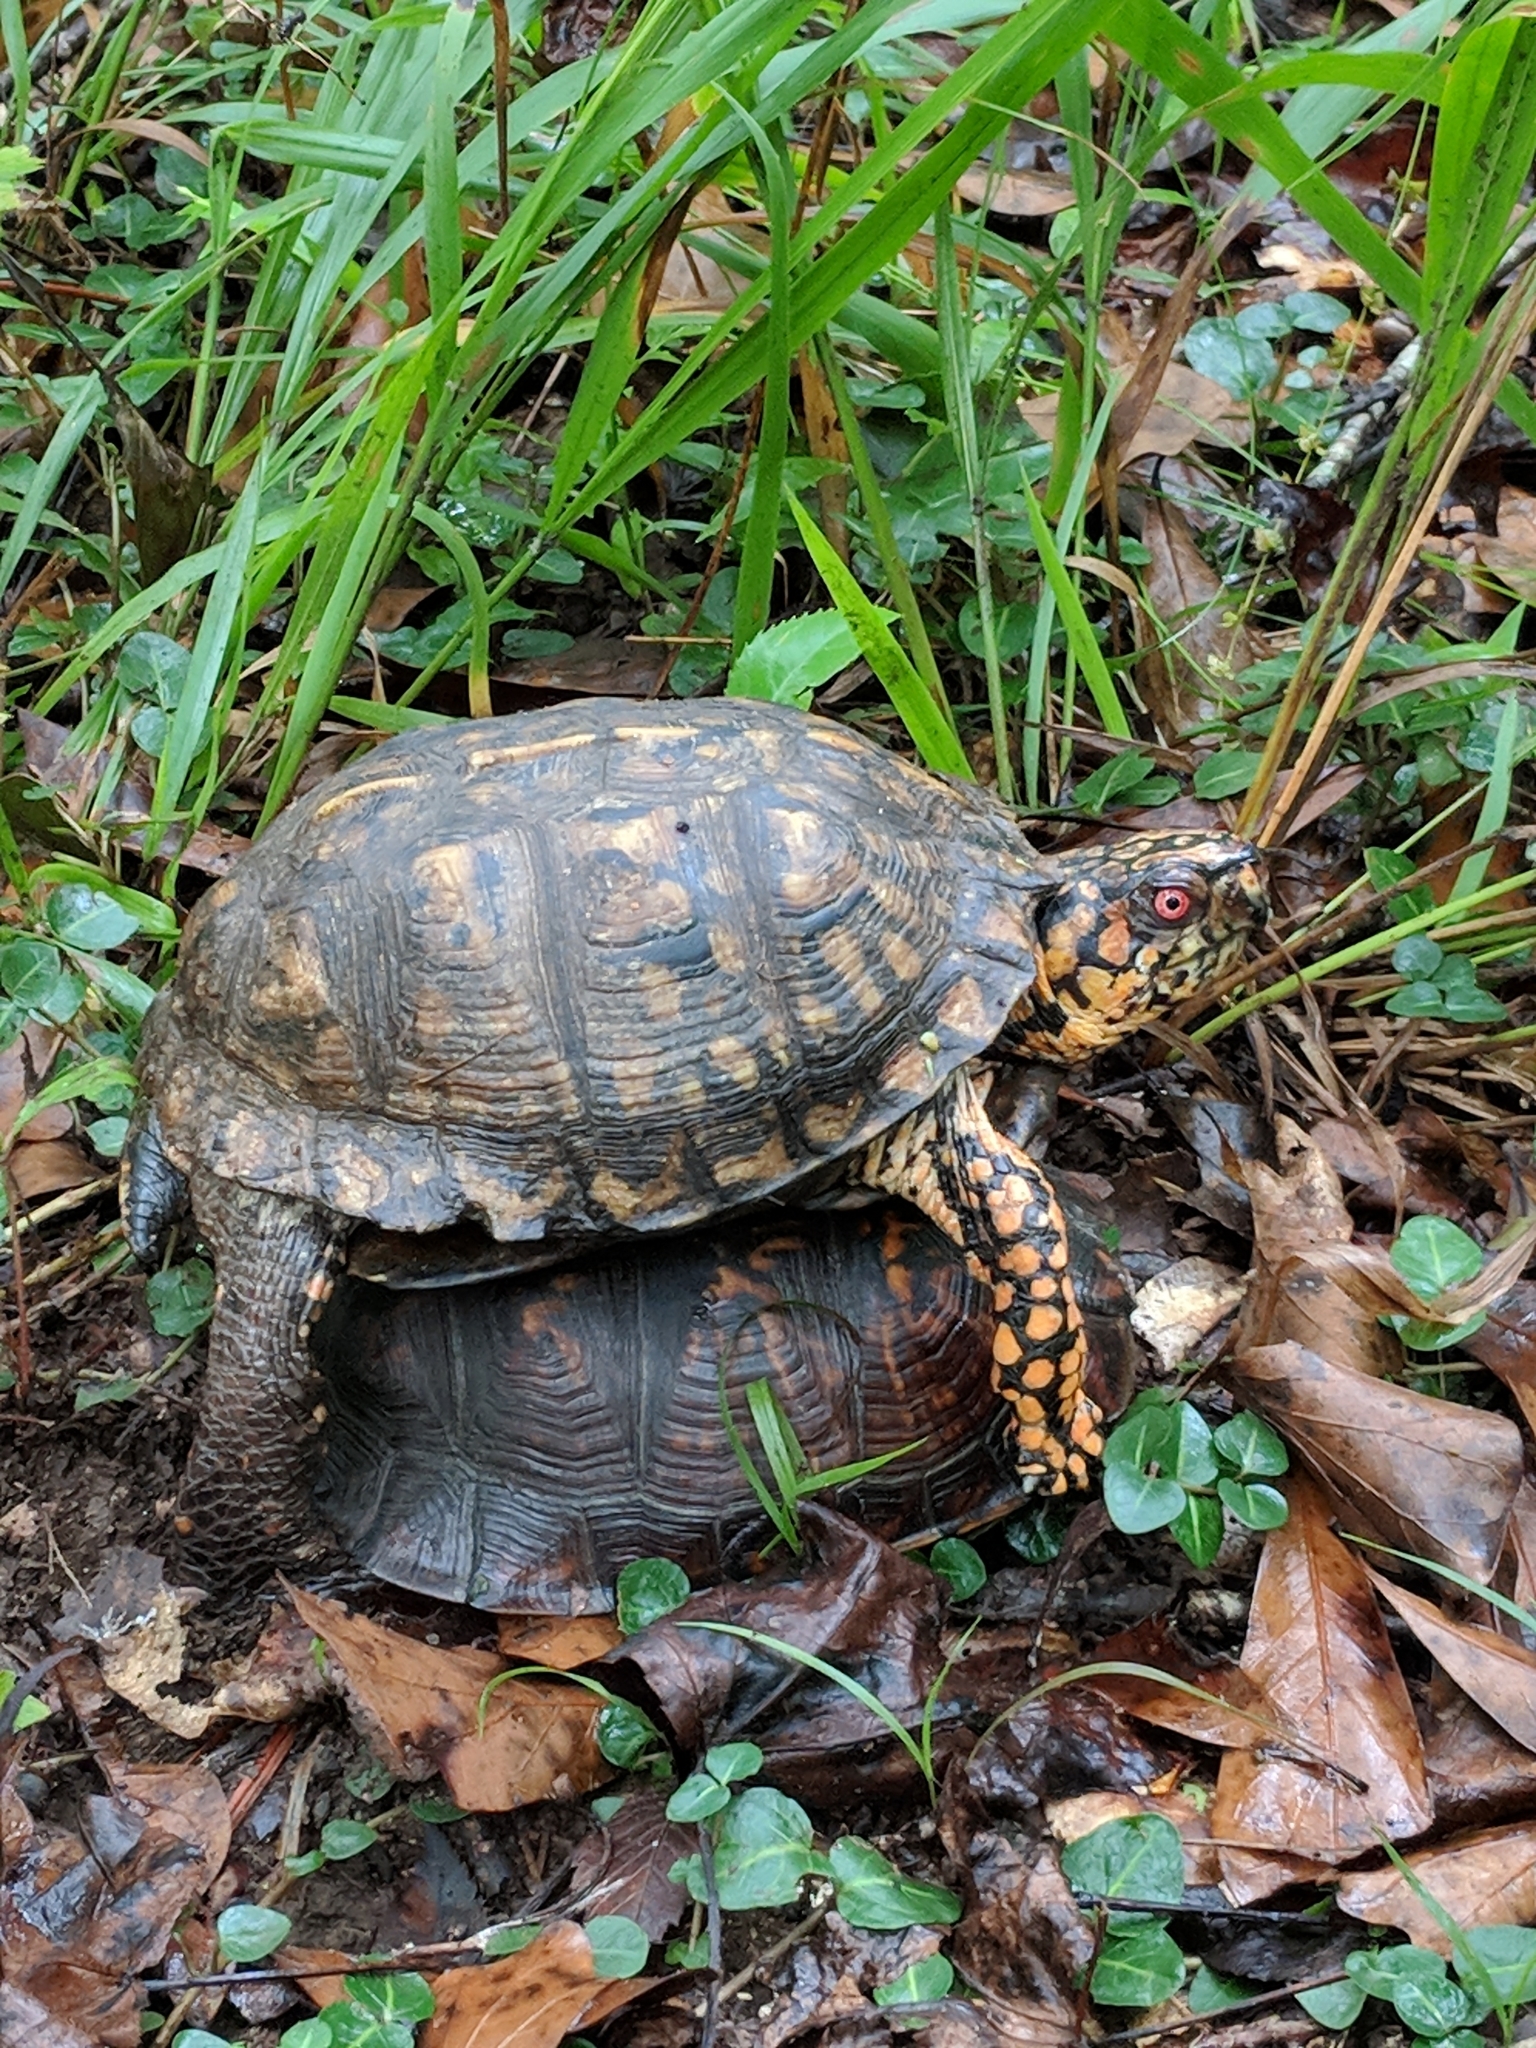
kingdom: Animalia
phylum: Chordata
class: Testudines
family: Emydidae
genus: Terrapene
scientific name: Terrapene carolina
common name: Common box turtle
